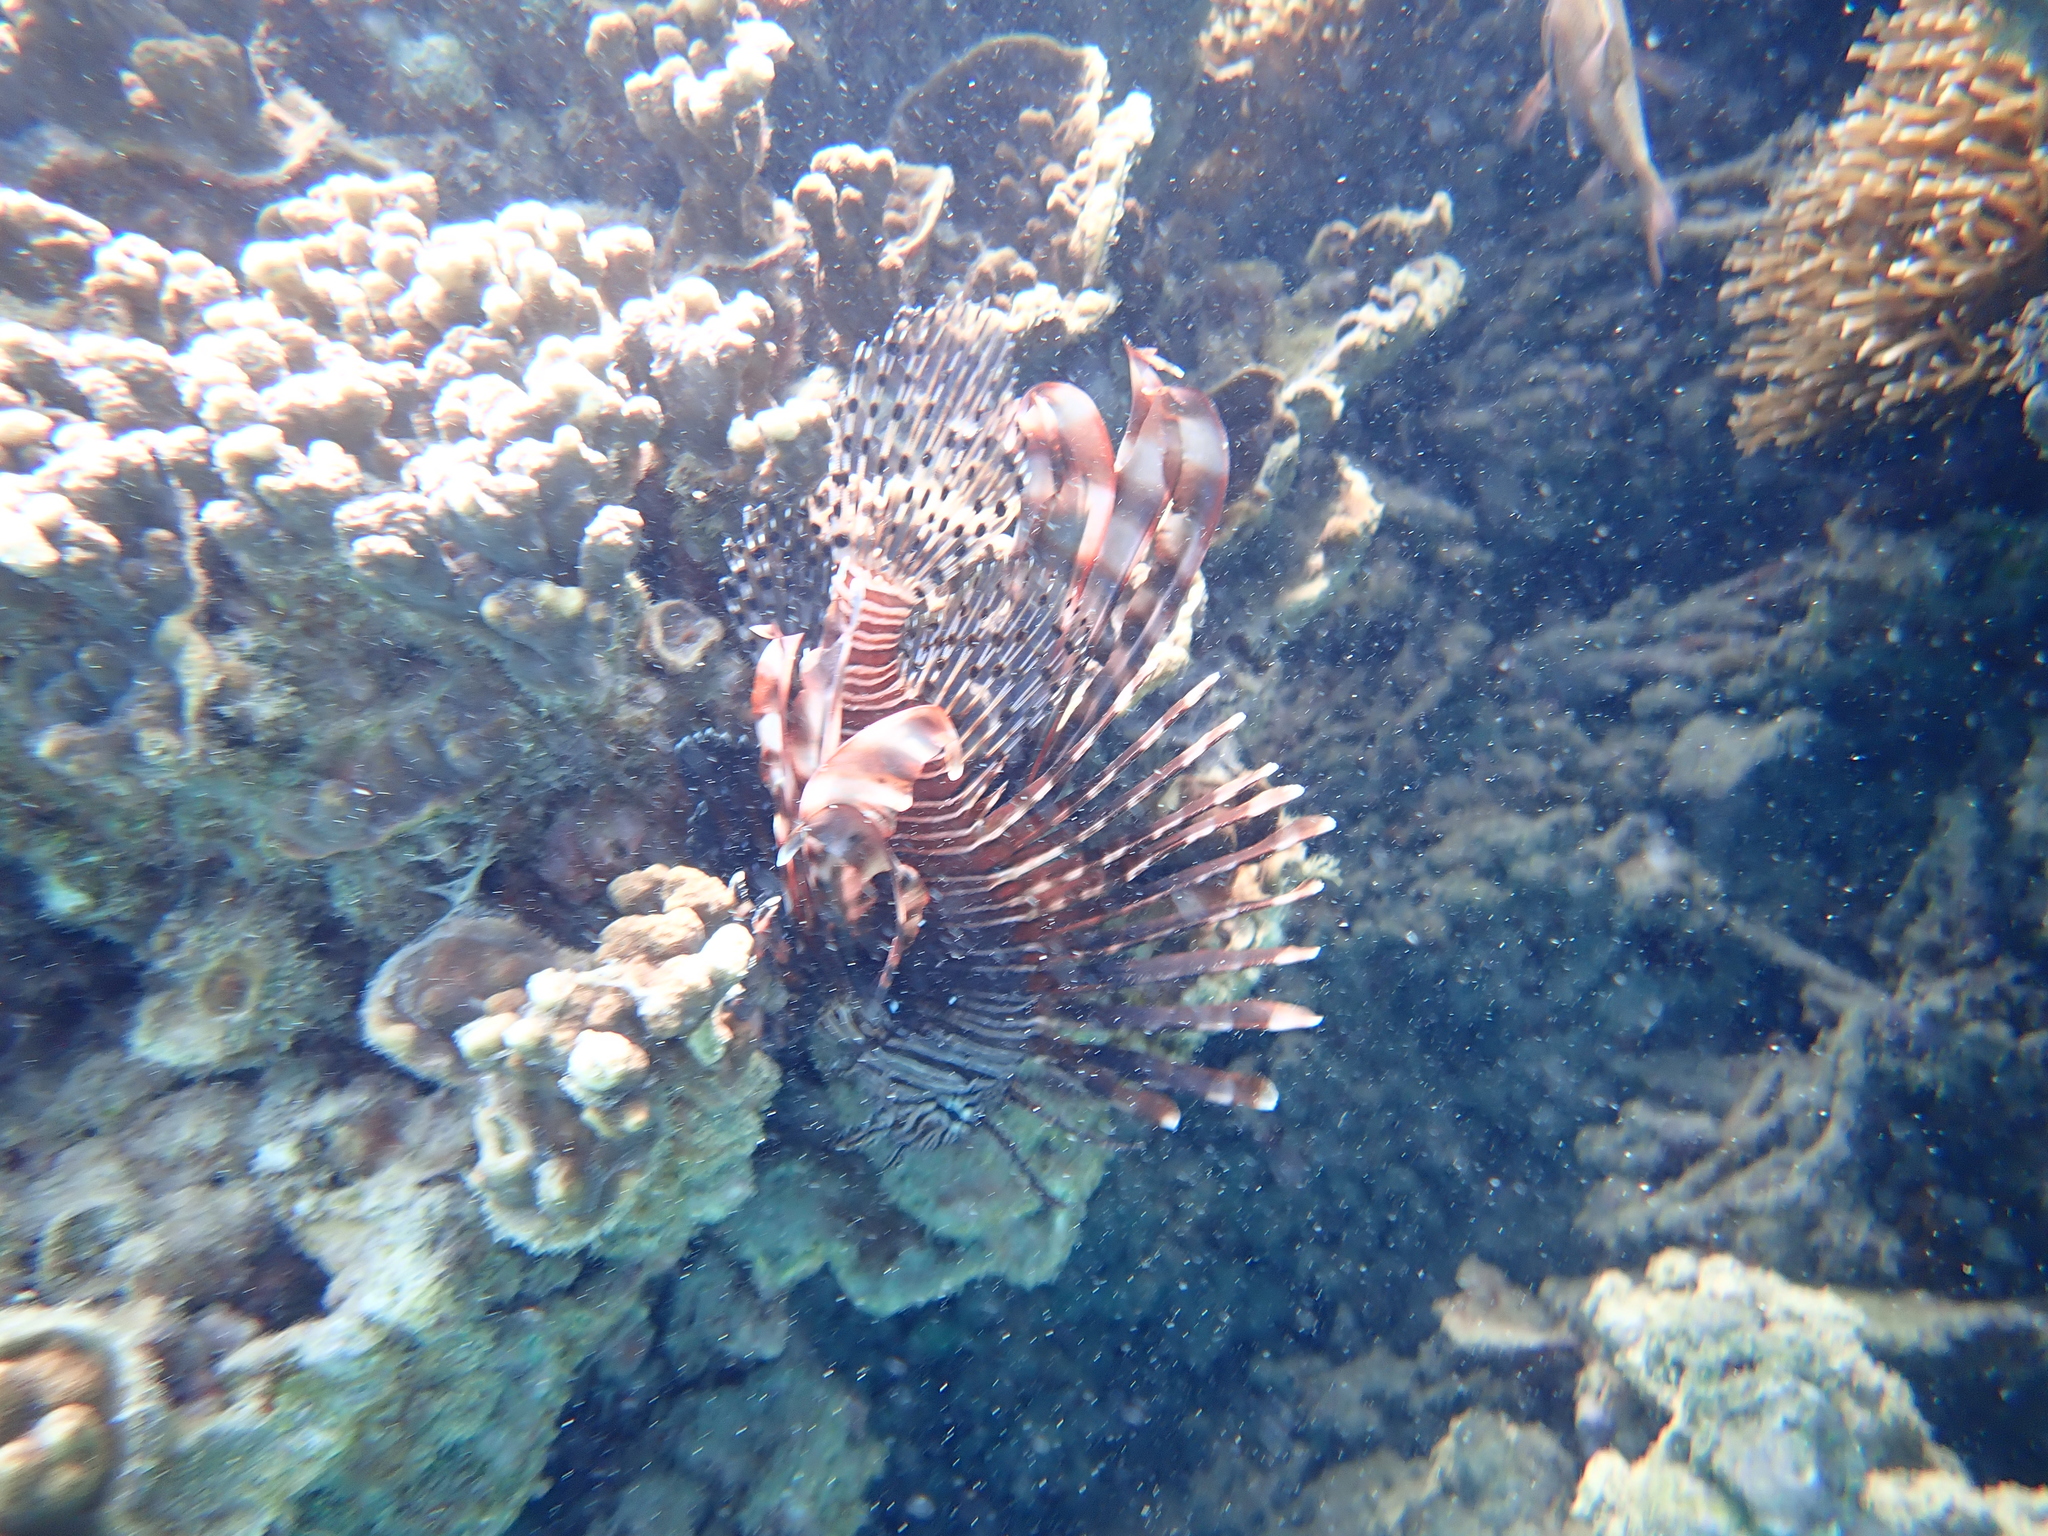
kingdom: Animalia
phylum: Chordata
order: Scorpaeniformes
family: Scorpaenidae
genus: Pterois
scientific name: Pterois volitans
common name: Lionfish
